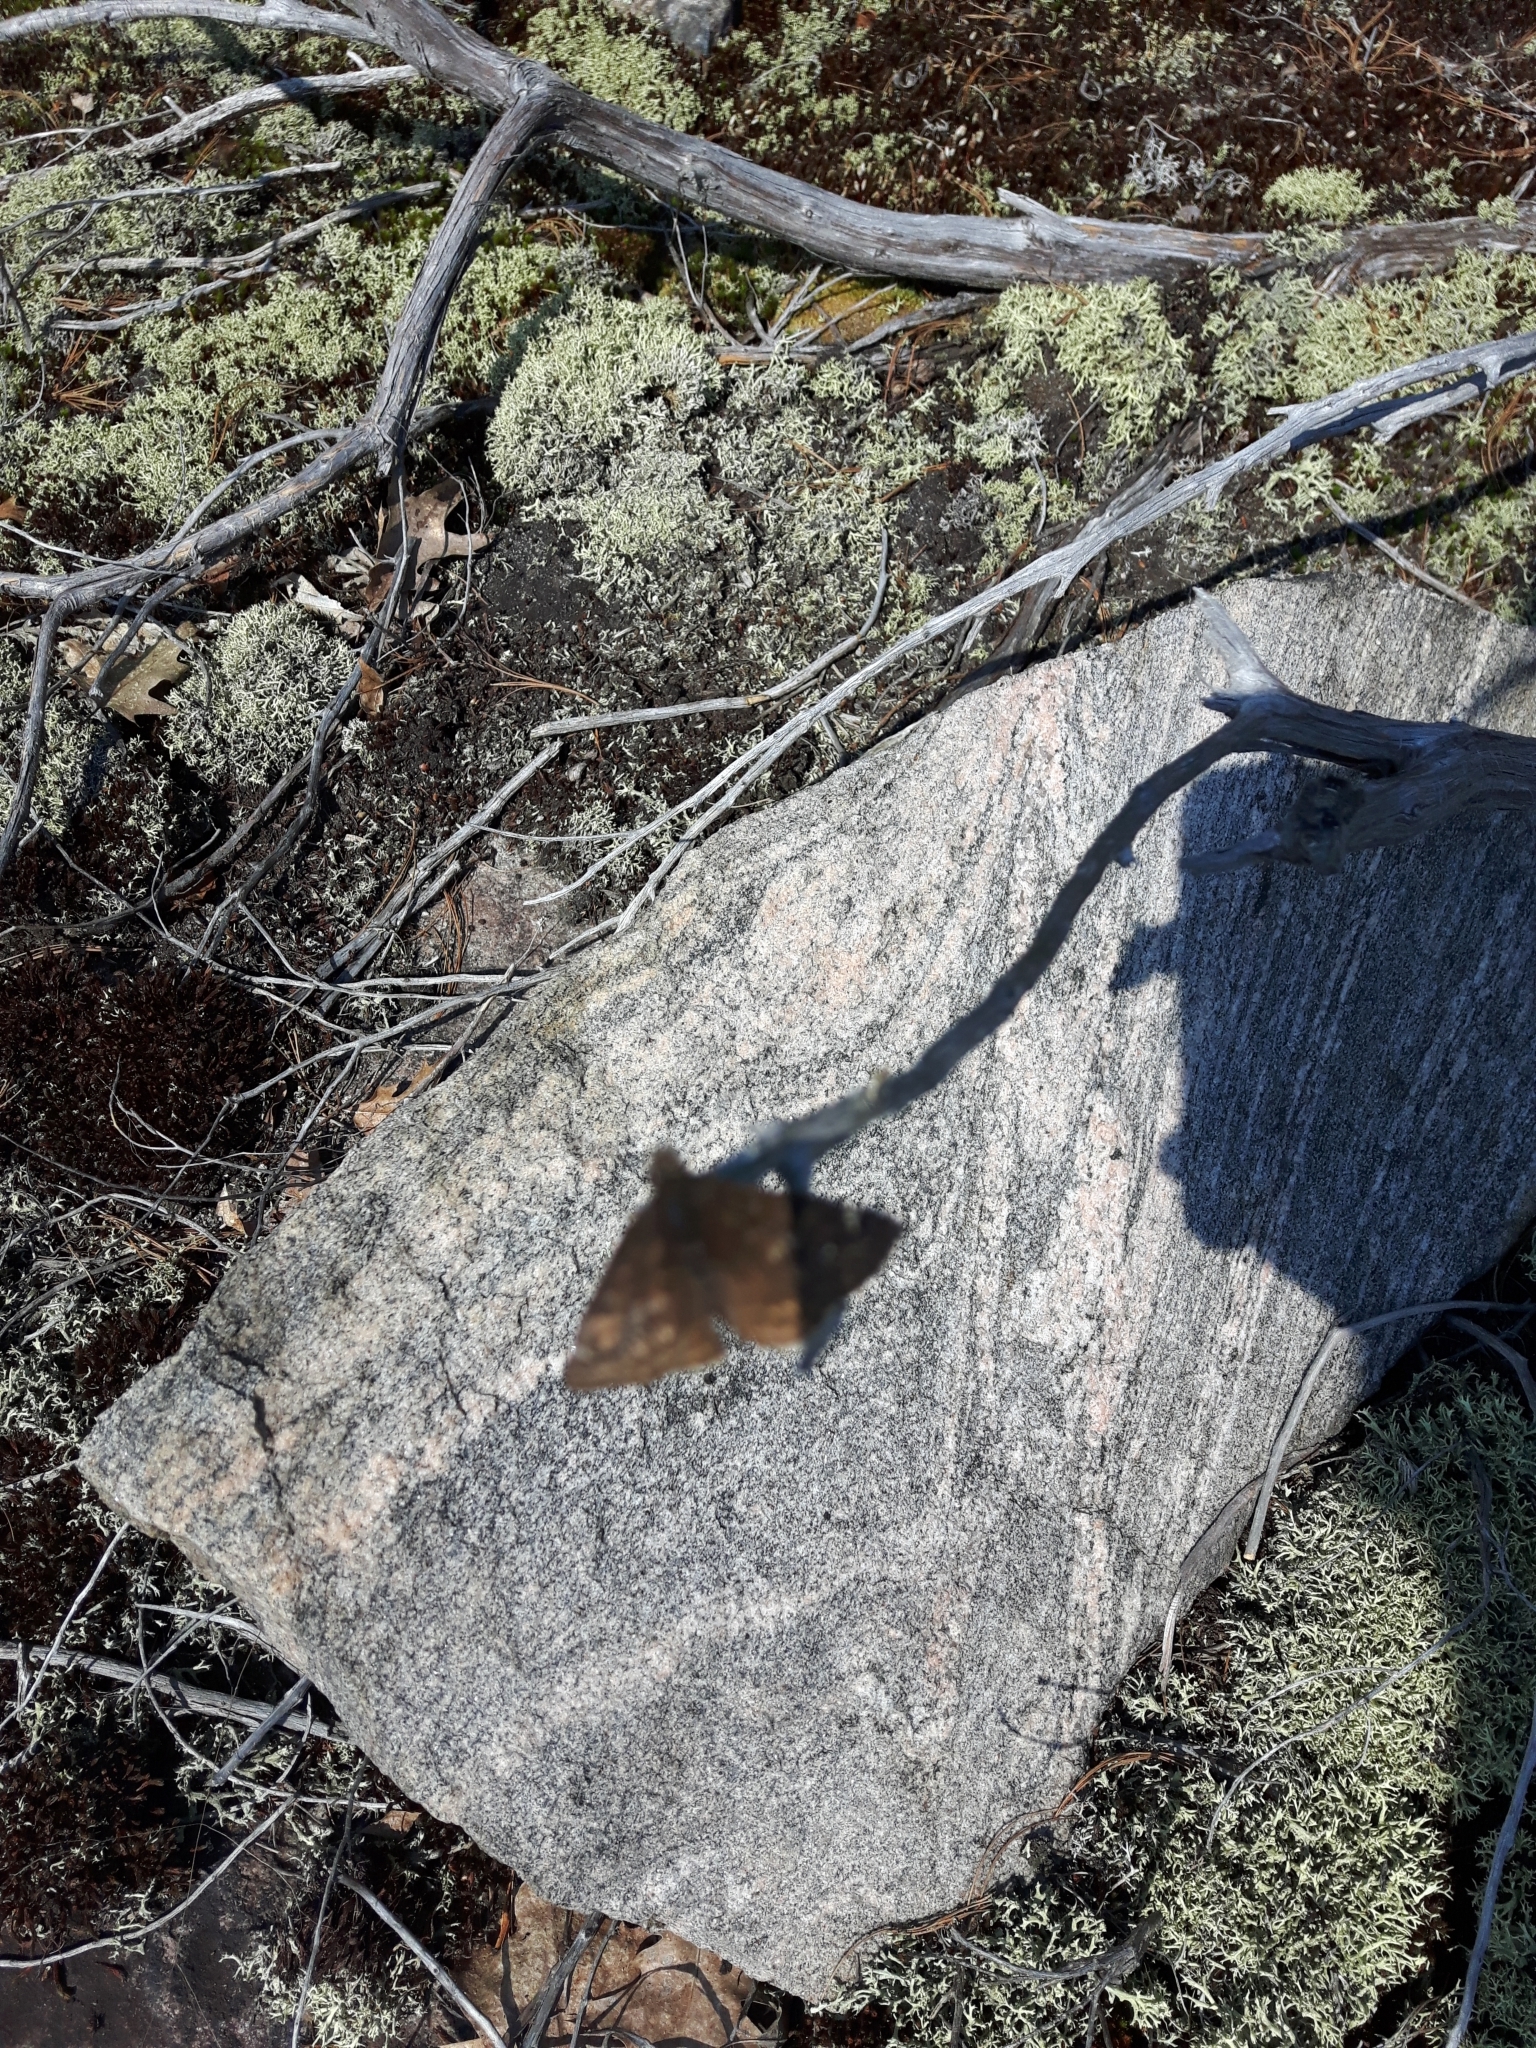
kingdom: Animalia
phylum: Arthropoda
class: Insecta
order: Lepidoptera
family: Hesperiidae
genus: Erynnis
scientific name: Erynnis juvenalis
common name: Juvenal's duskywing
